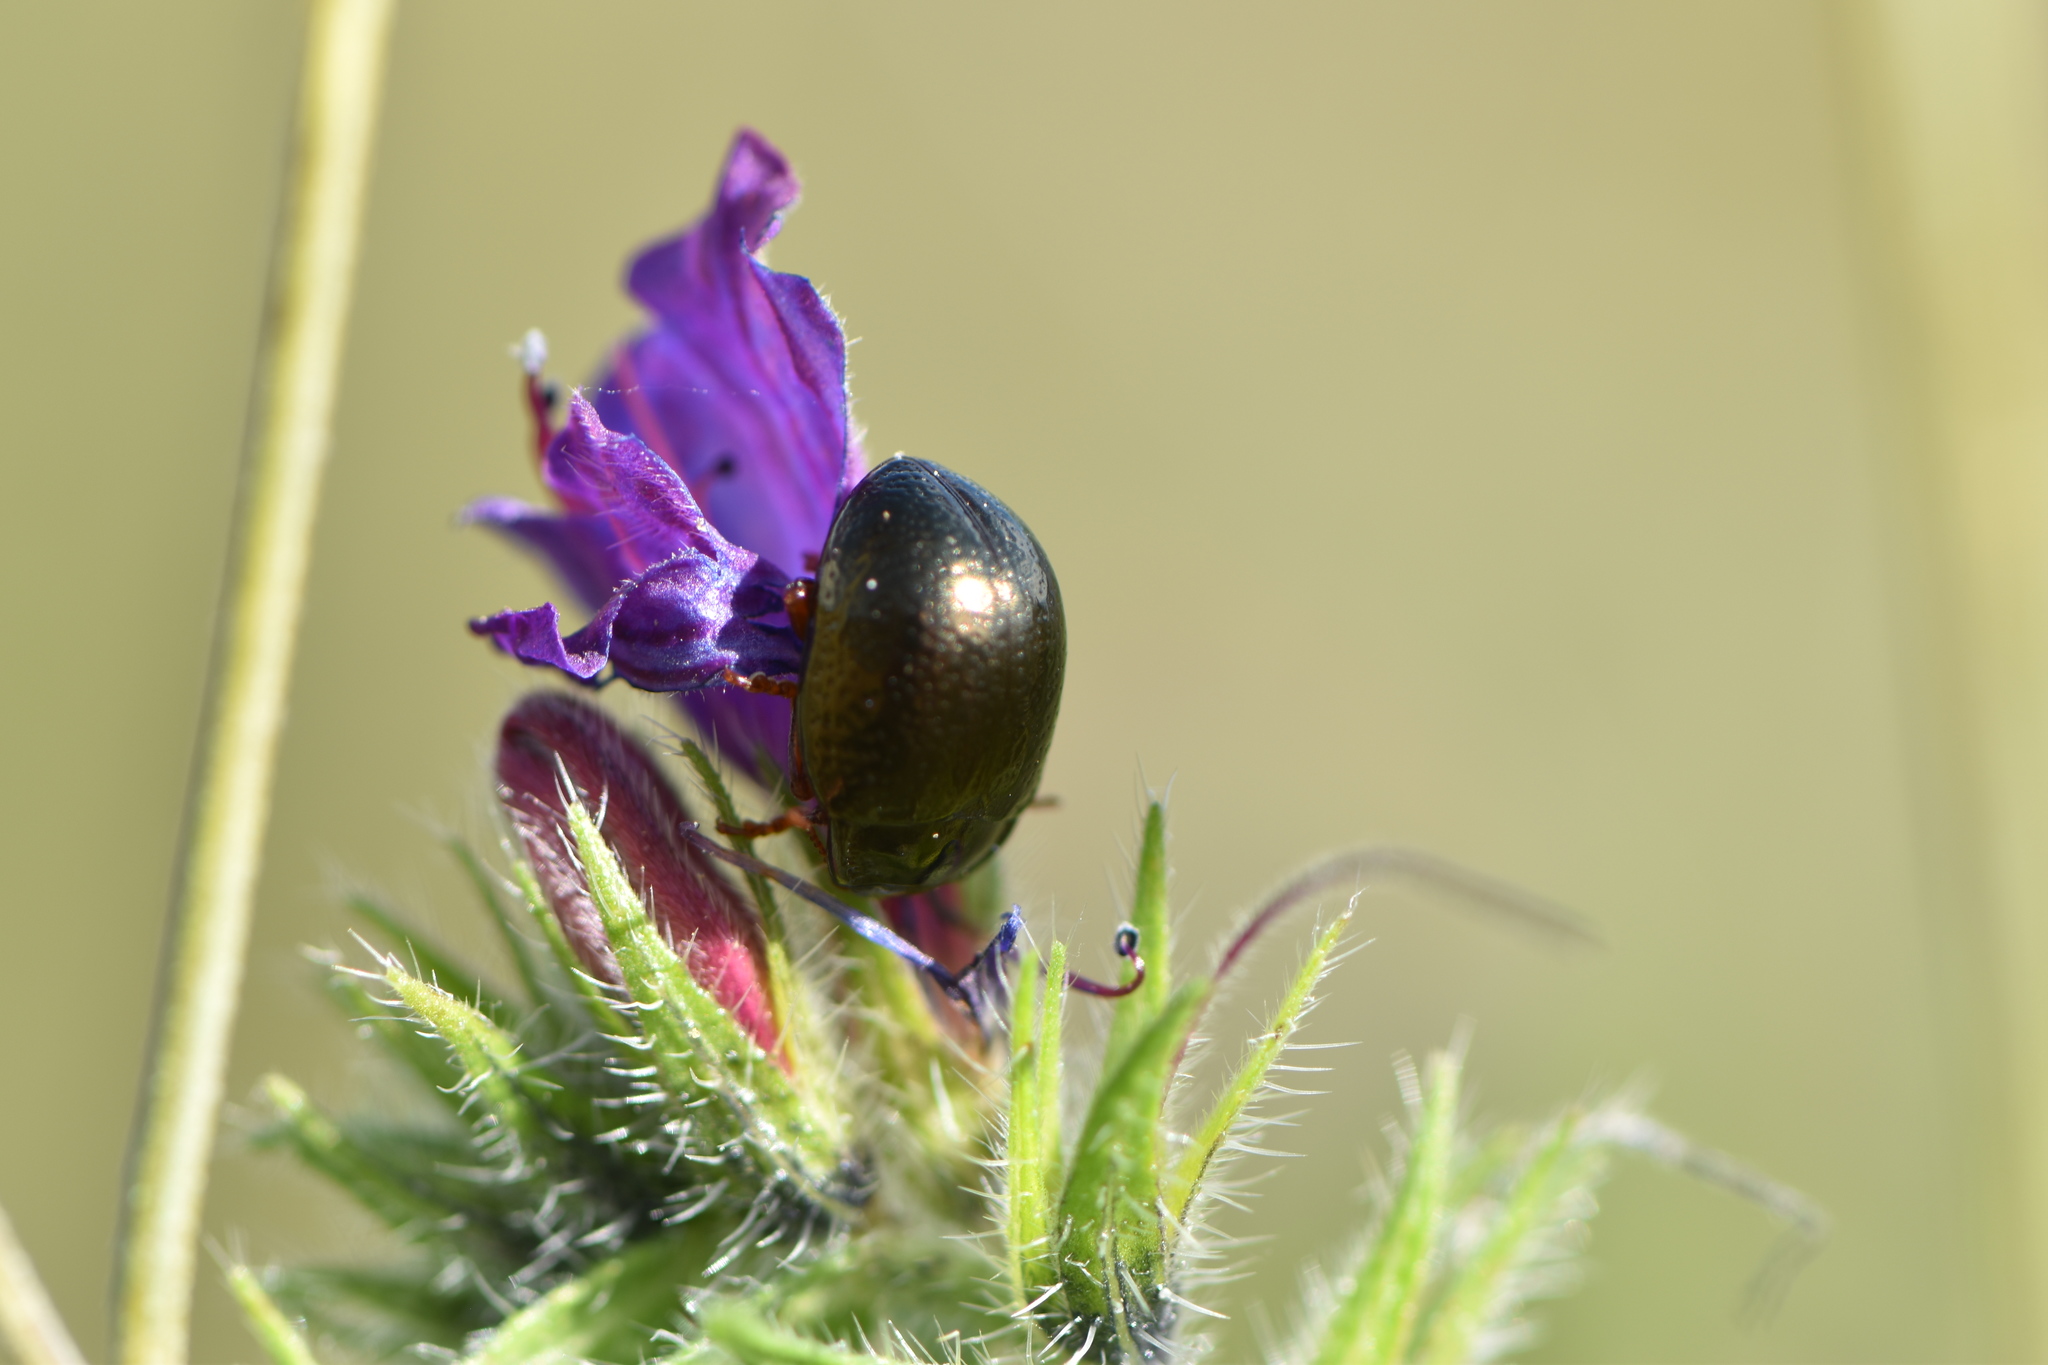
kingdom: Animalia
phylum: Arthropoda
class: Insecta
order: Coleoptera
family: Chrysomelidae
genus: Chrysolina
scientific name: Chrysolina bankii
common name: Leaf beetle
